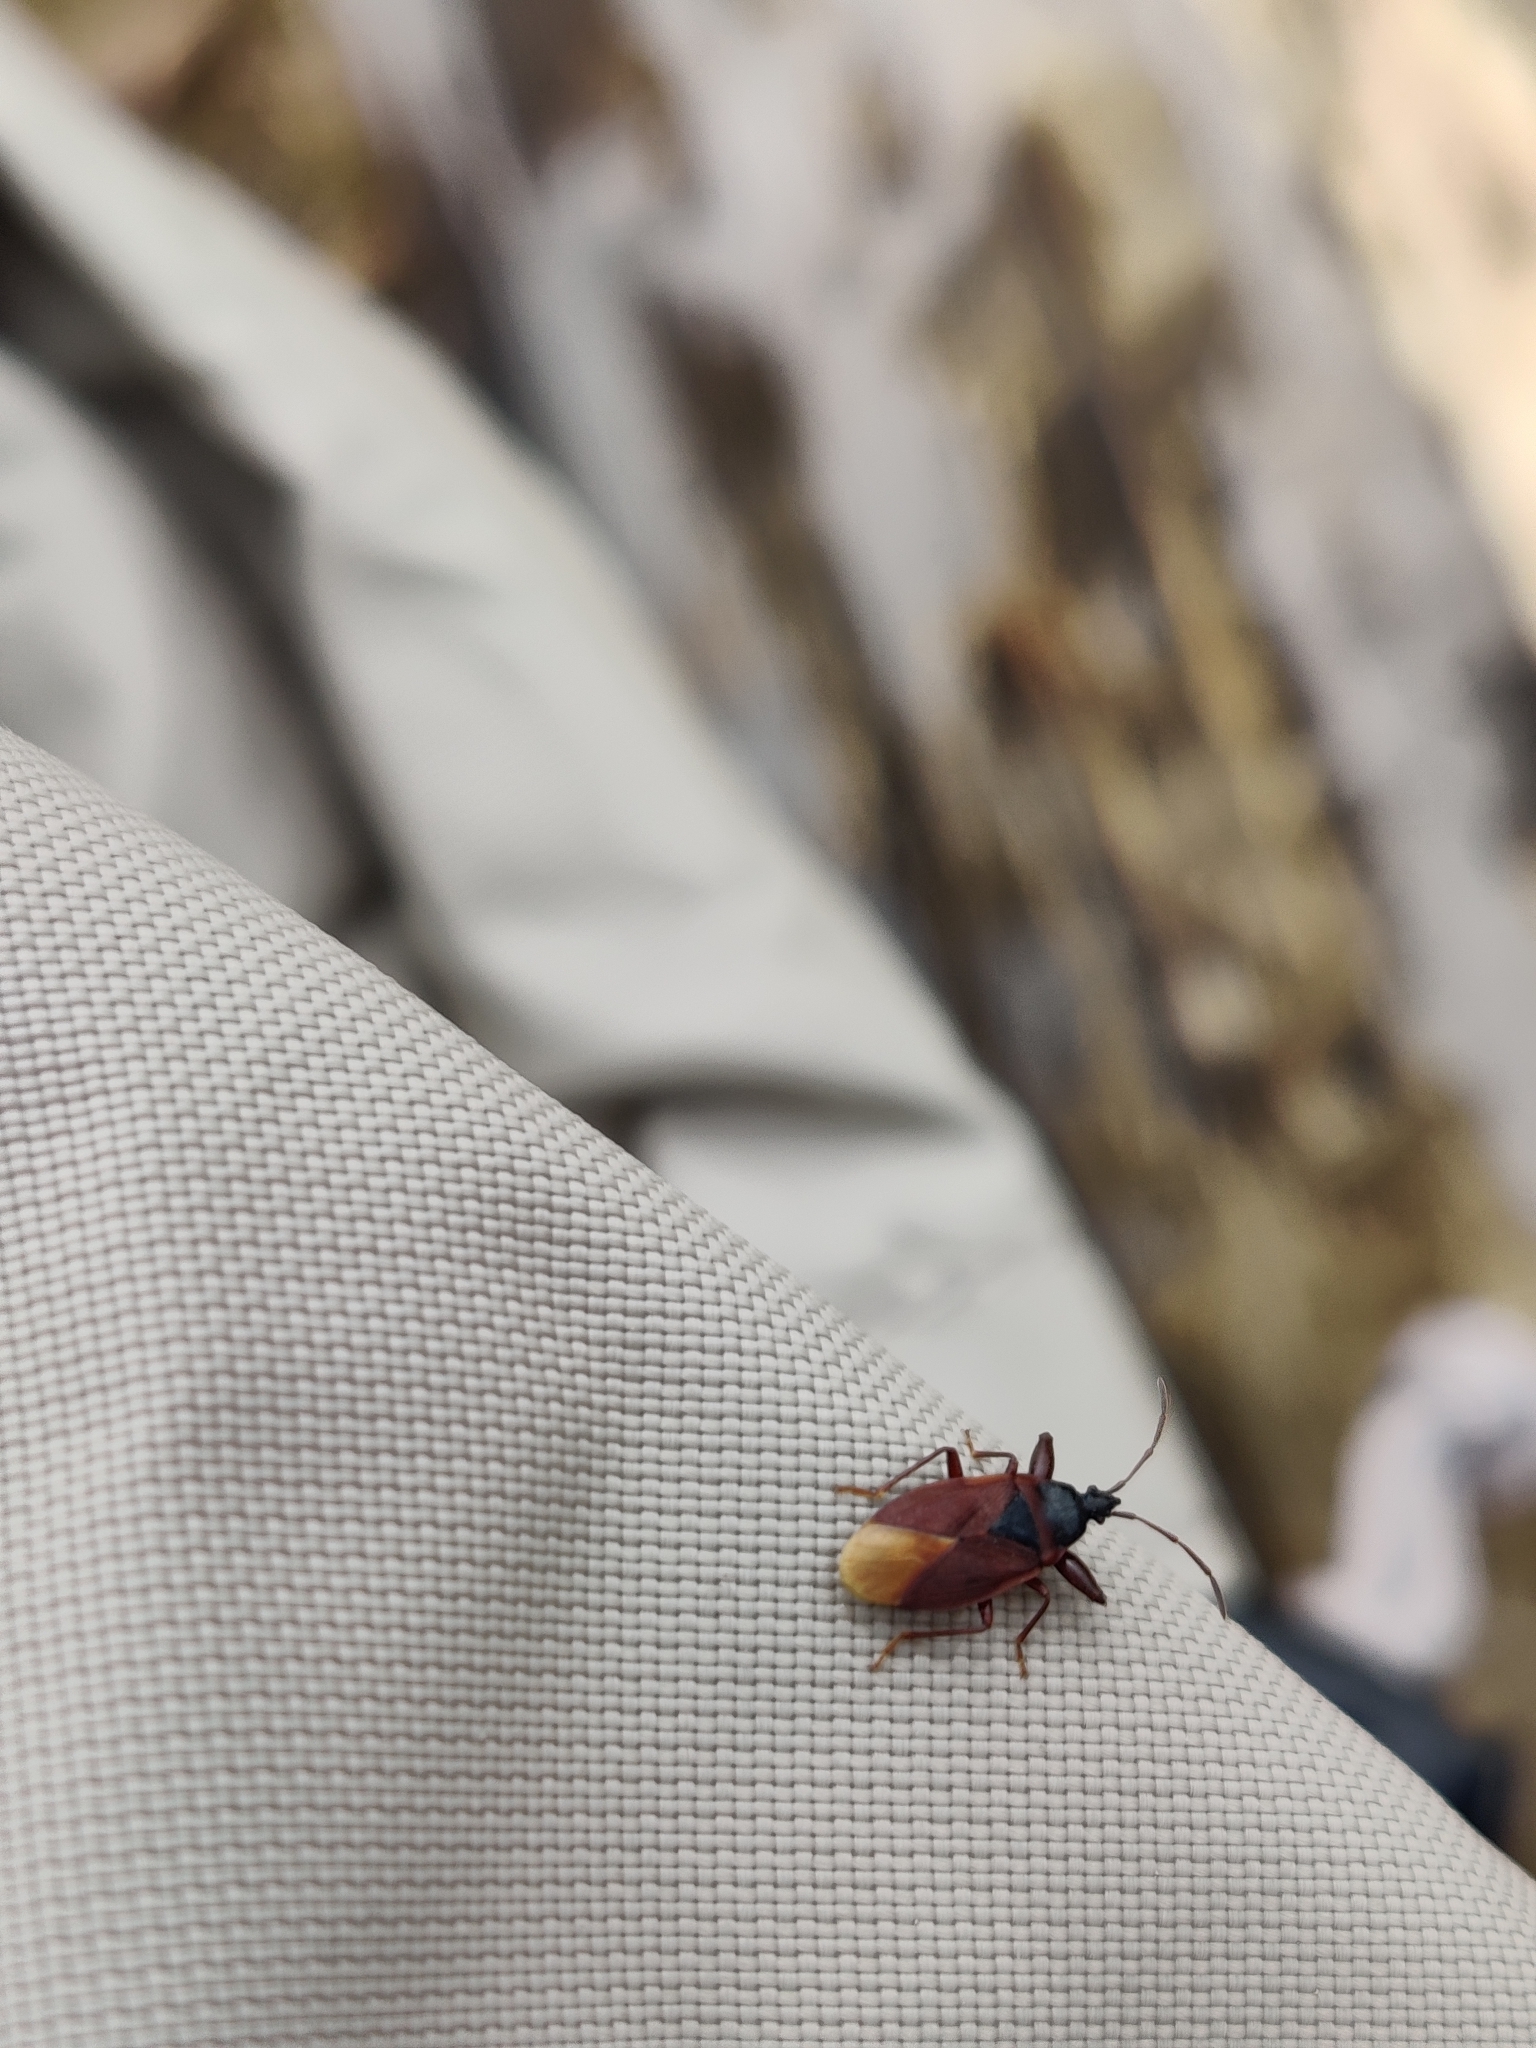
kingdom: Animalia
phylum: Arthropoda
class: Insecta
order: Hemiptera
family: Rhyparochromidae
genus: Gastrodes
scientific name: Gastrodes grossipes
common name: Pine cone bug
